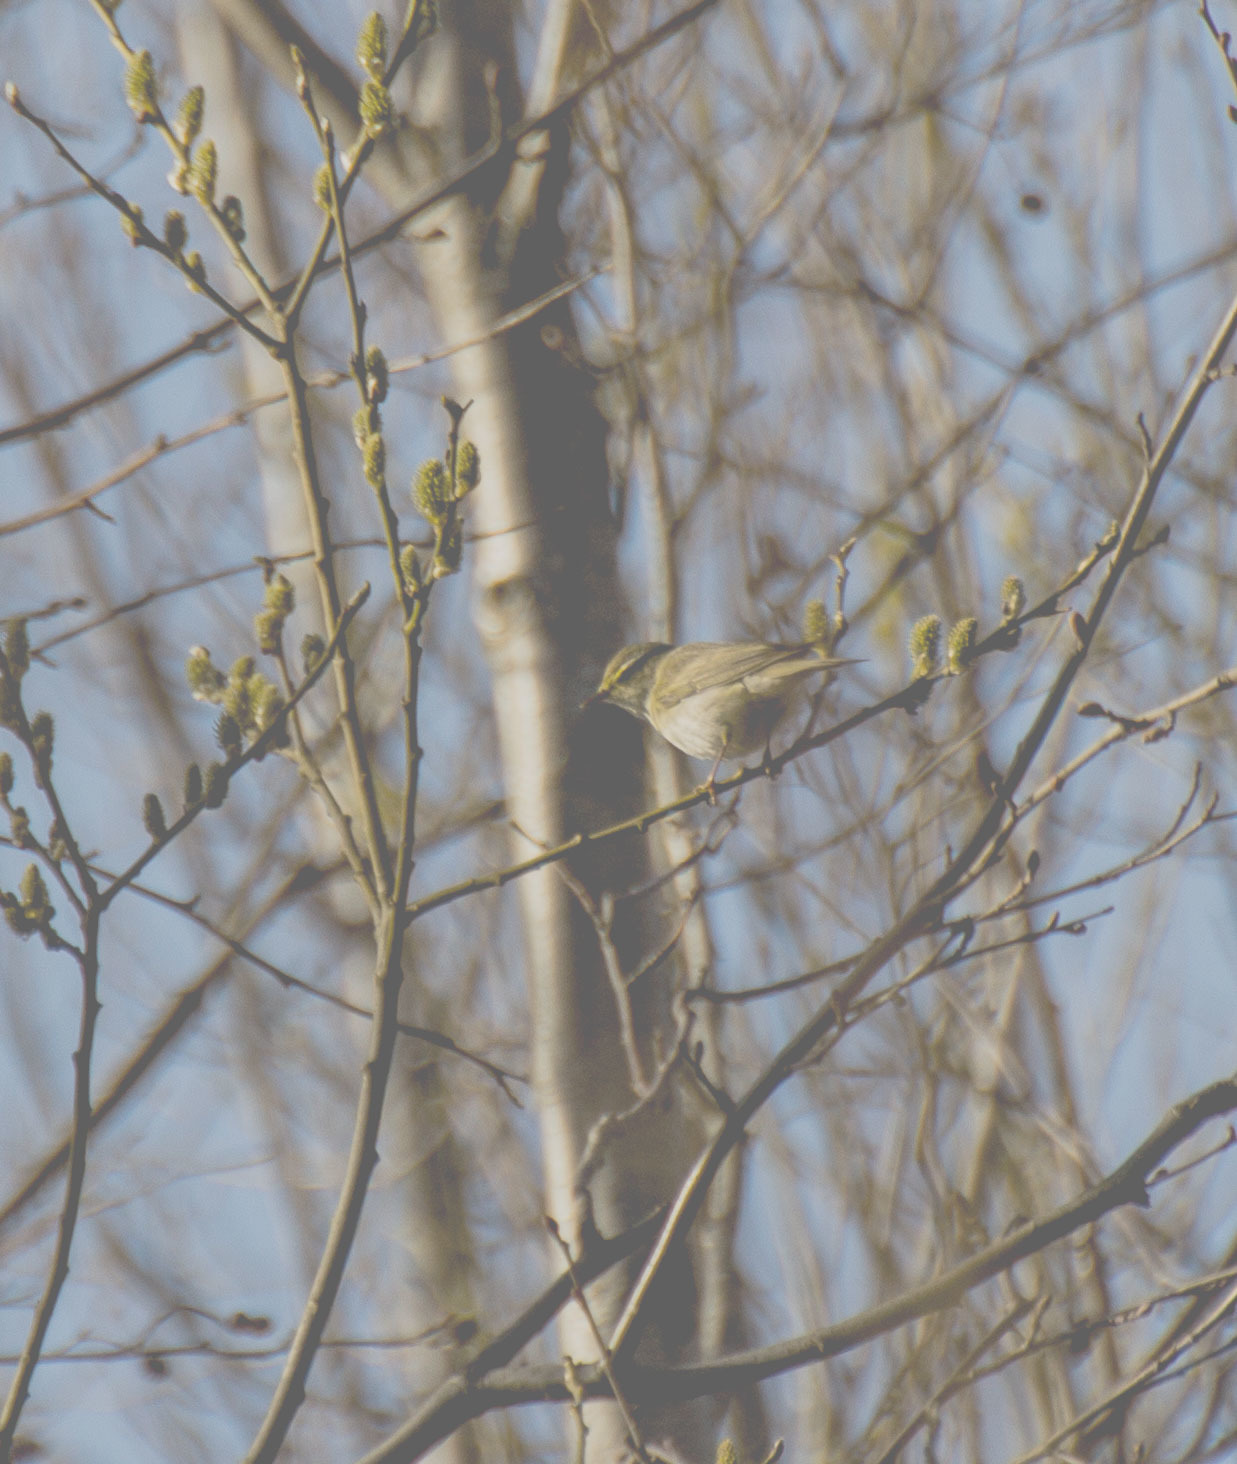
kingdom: Animalia
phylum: Chordata
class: Aves
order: Passeriformes
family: Phylloscopidae
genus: Phylloscopus
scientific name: Phylloscopus trochilus
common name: Willow warbler
